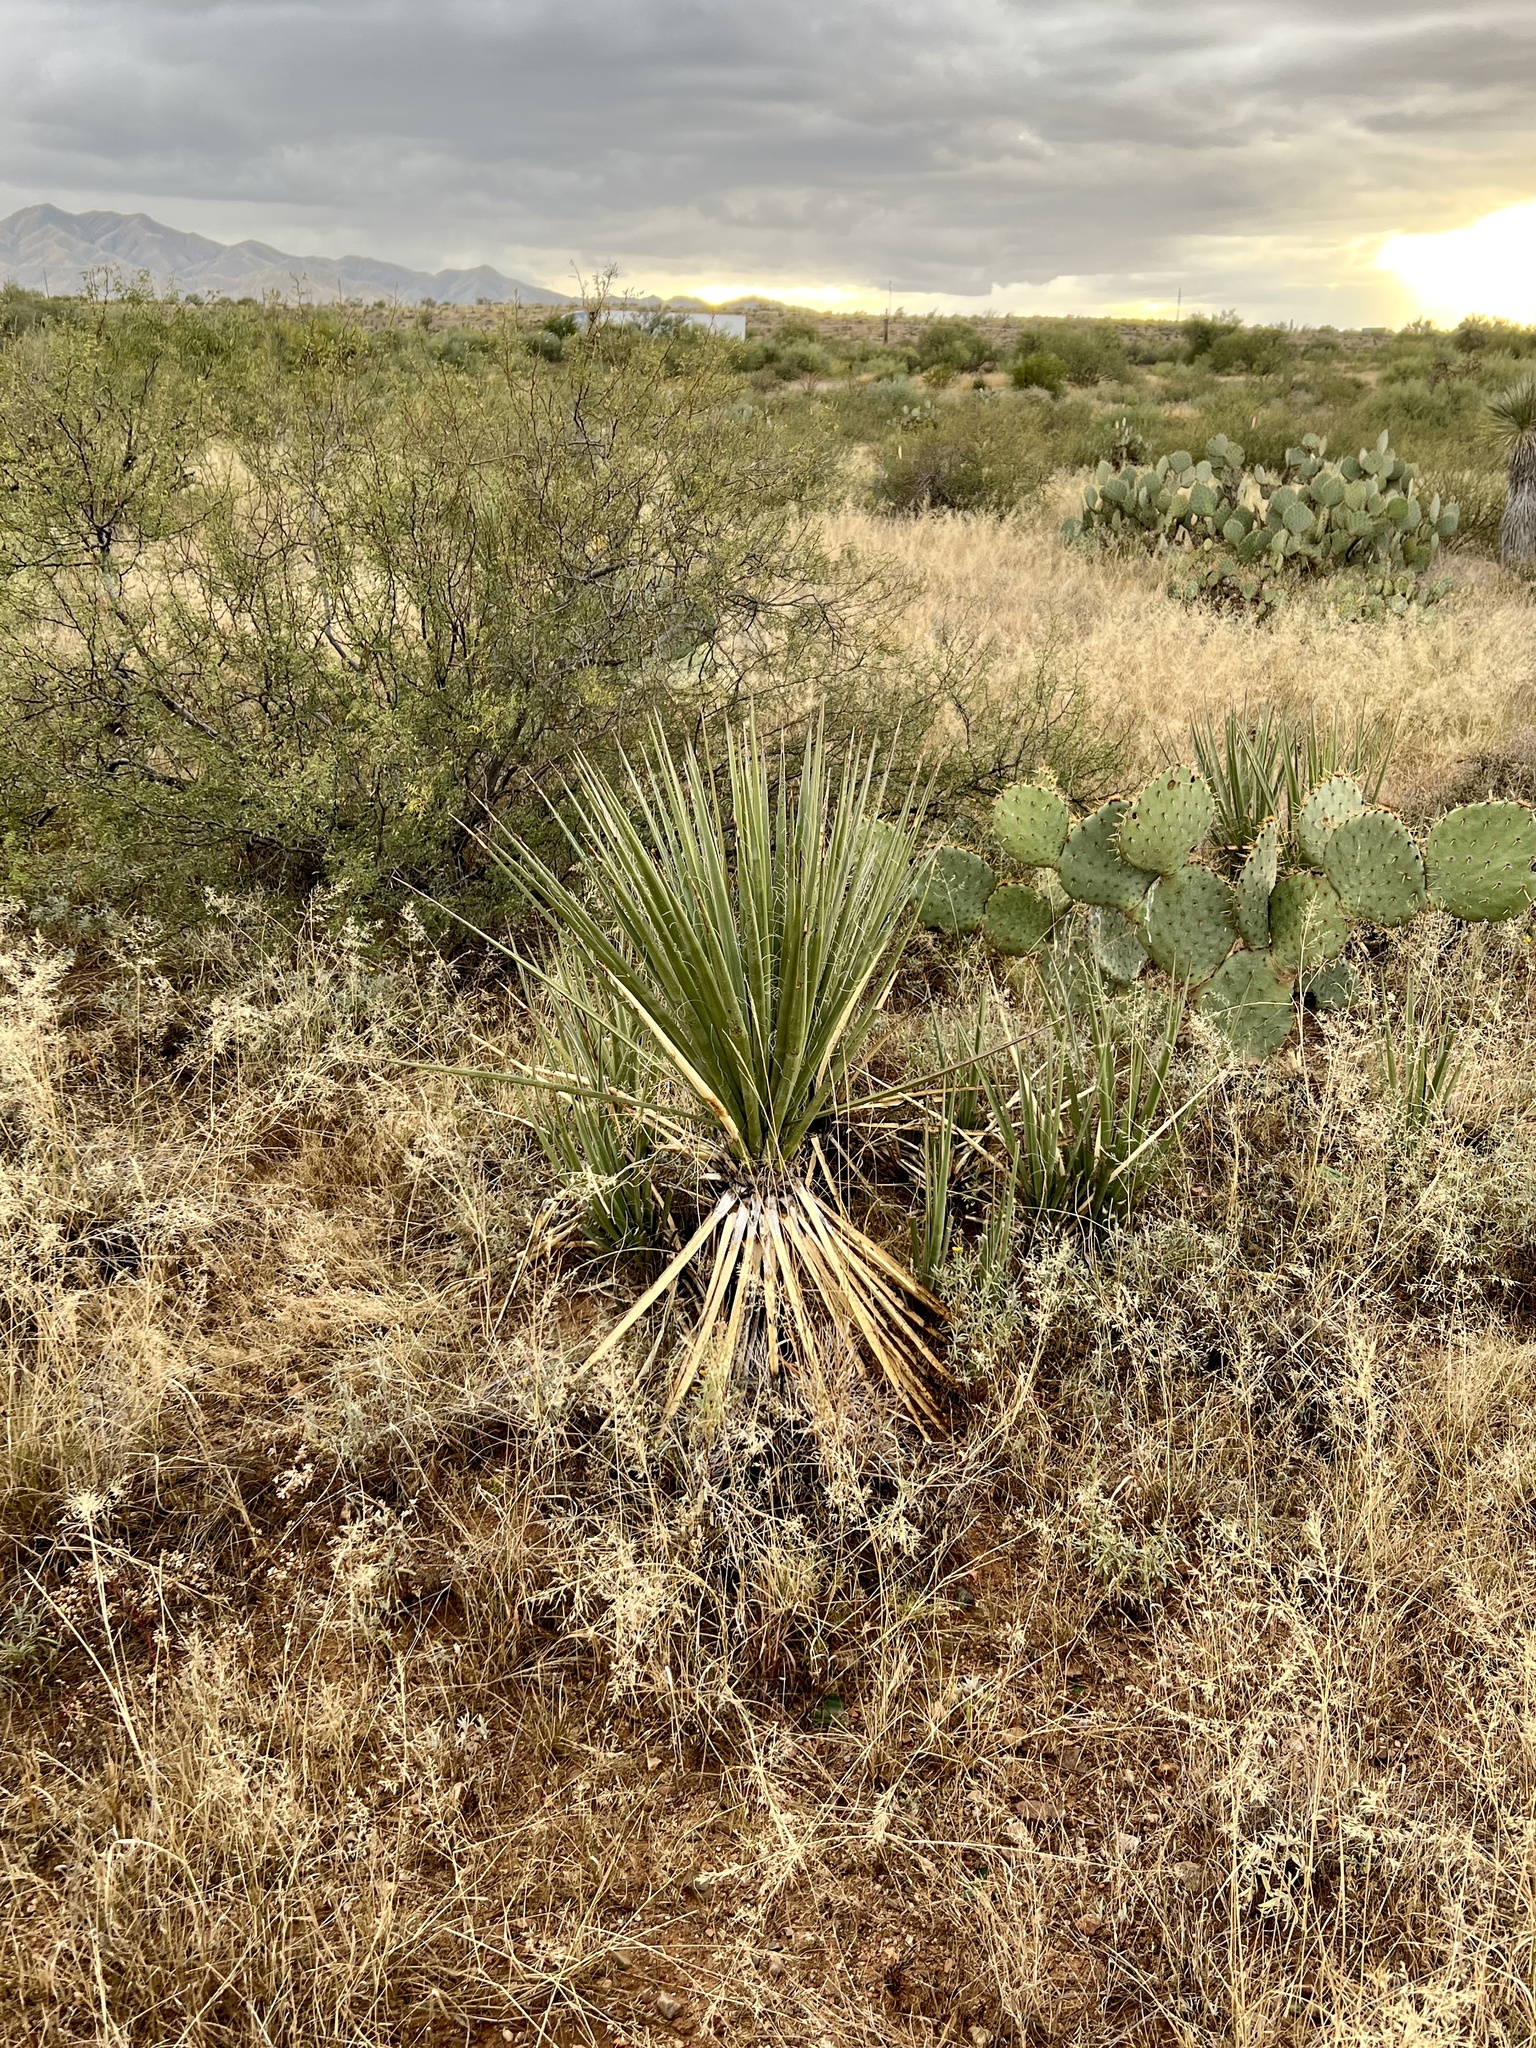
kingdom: Plantae
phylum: Tracheophyta
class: Liliopsida
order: Asparagales
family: Asparagaceae
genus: Yucca
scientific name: Yucca baccata
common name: Banana yucca
